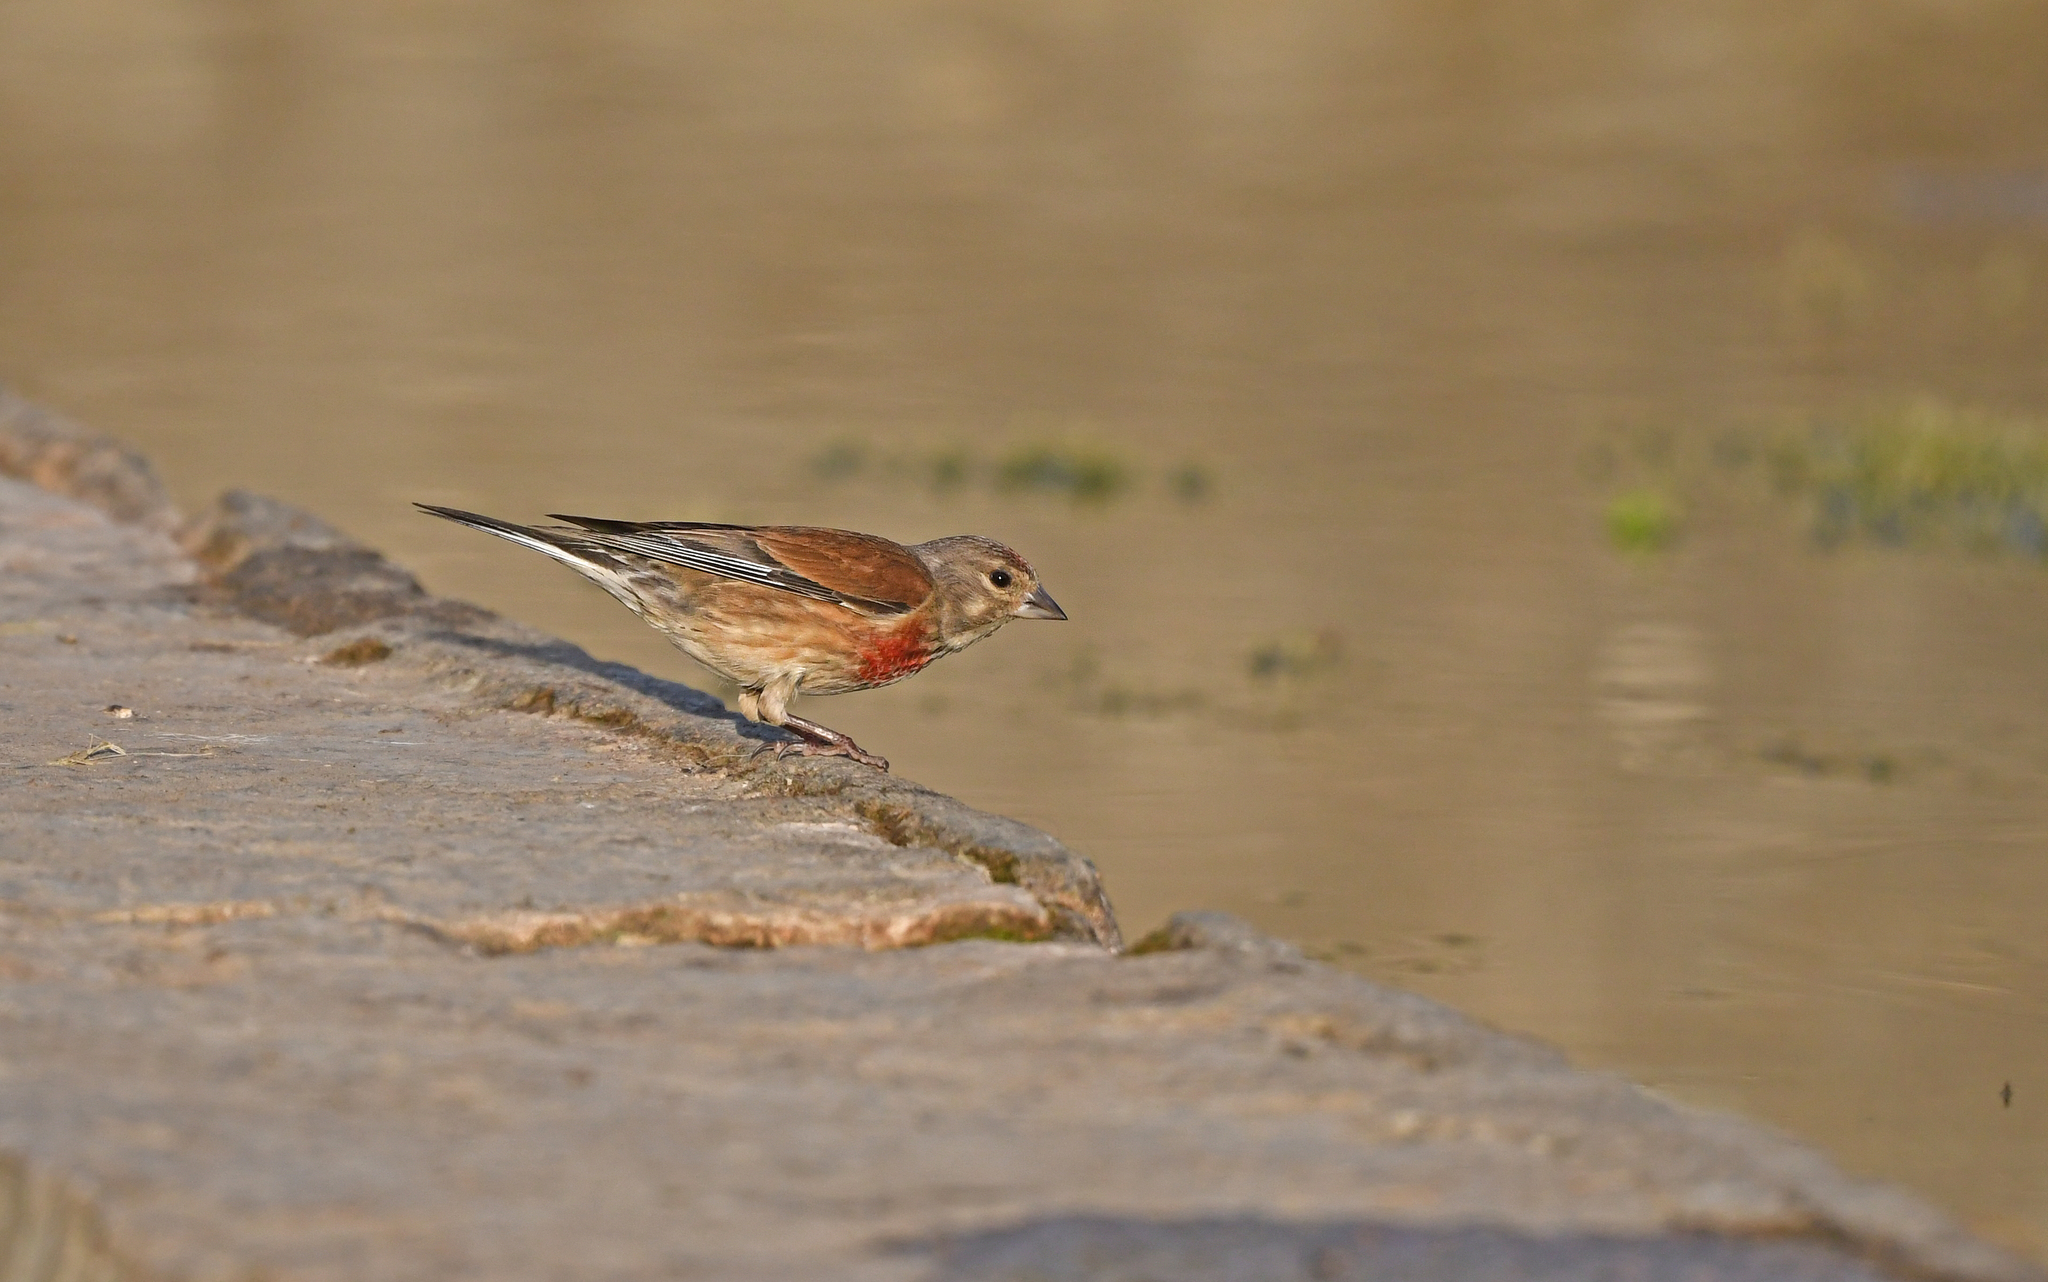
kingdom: Animalia
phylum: Chordata
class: Aves
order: Passeriformes
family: Fringillidae
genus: Linaria
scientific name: Linaria cannabina
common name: Common linnet
